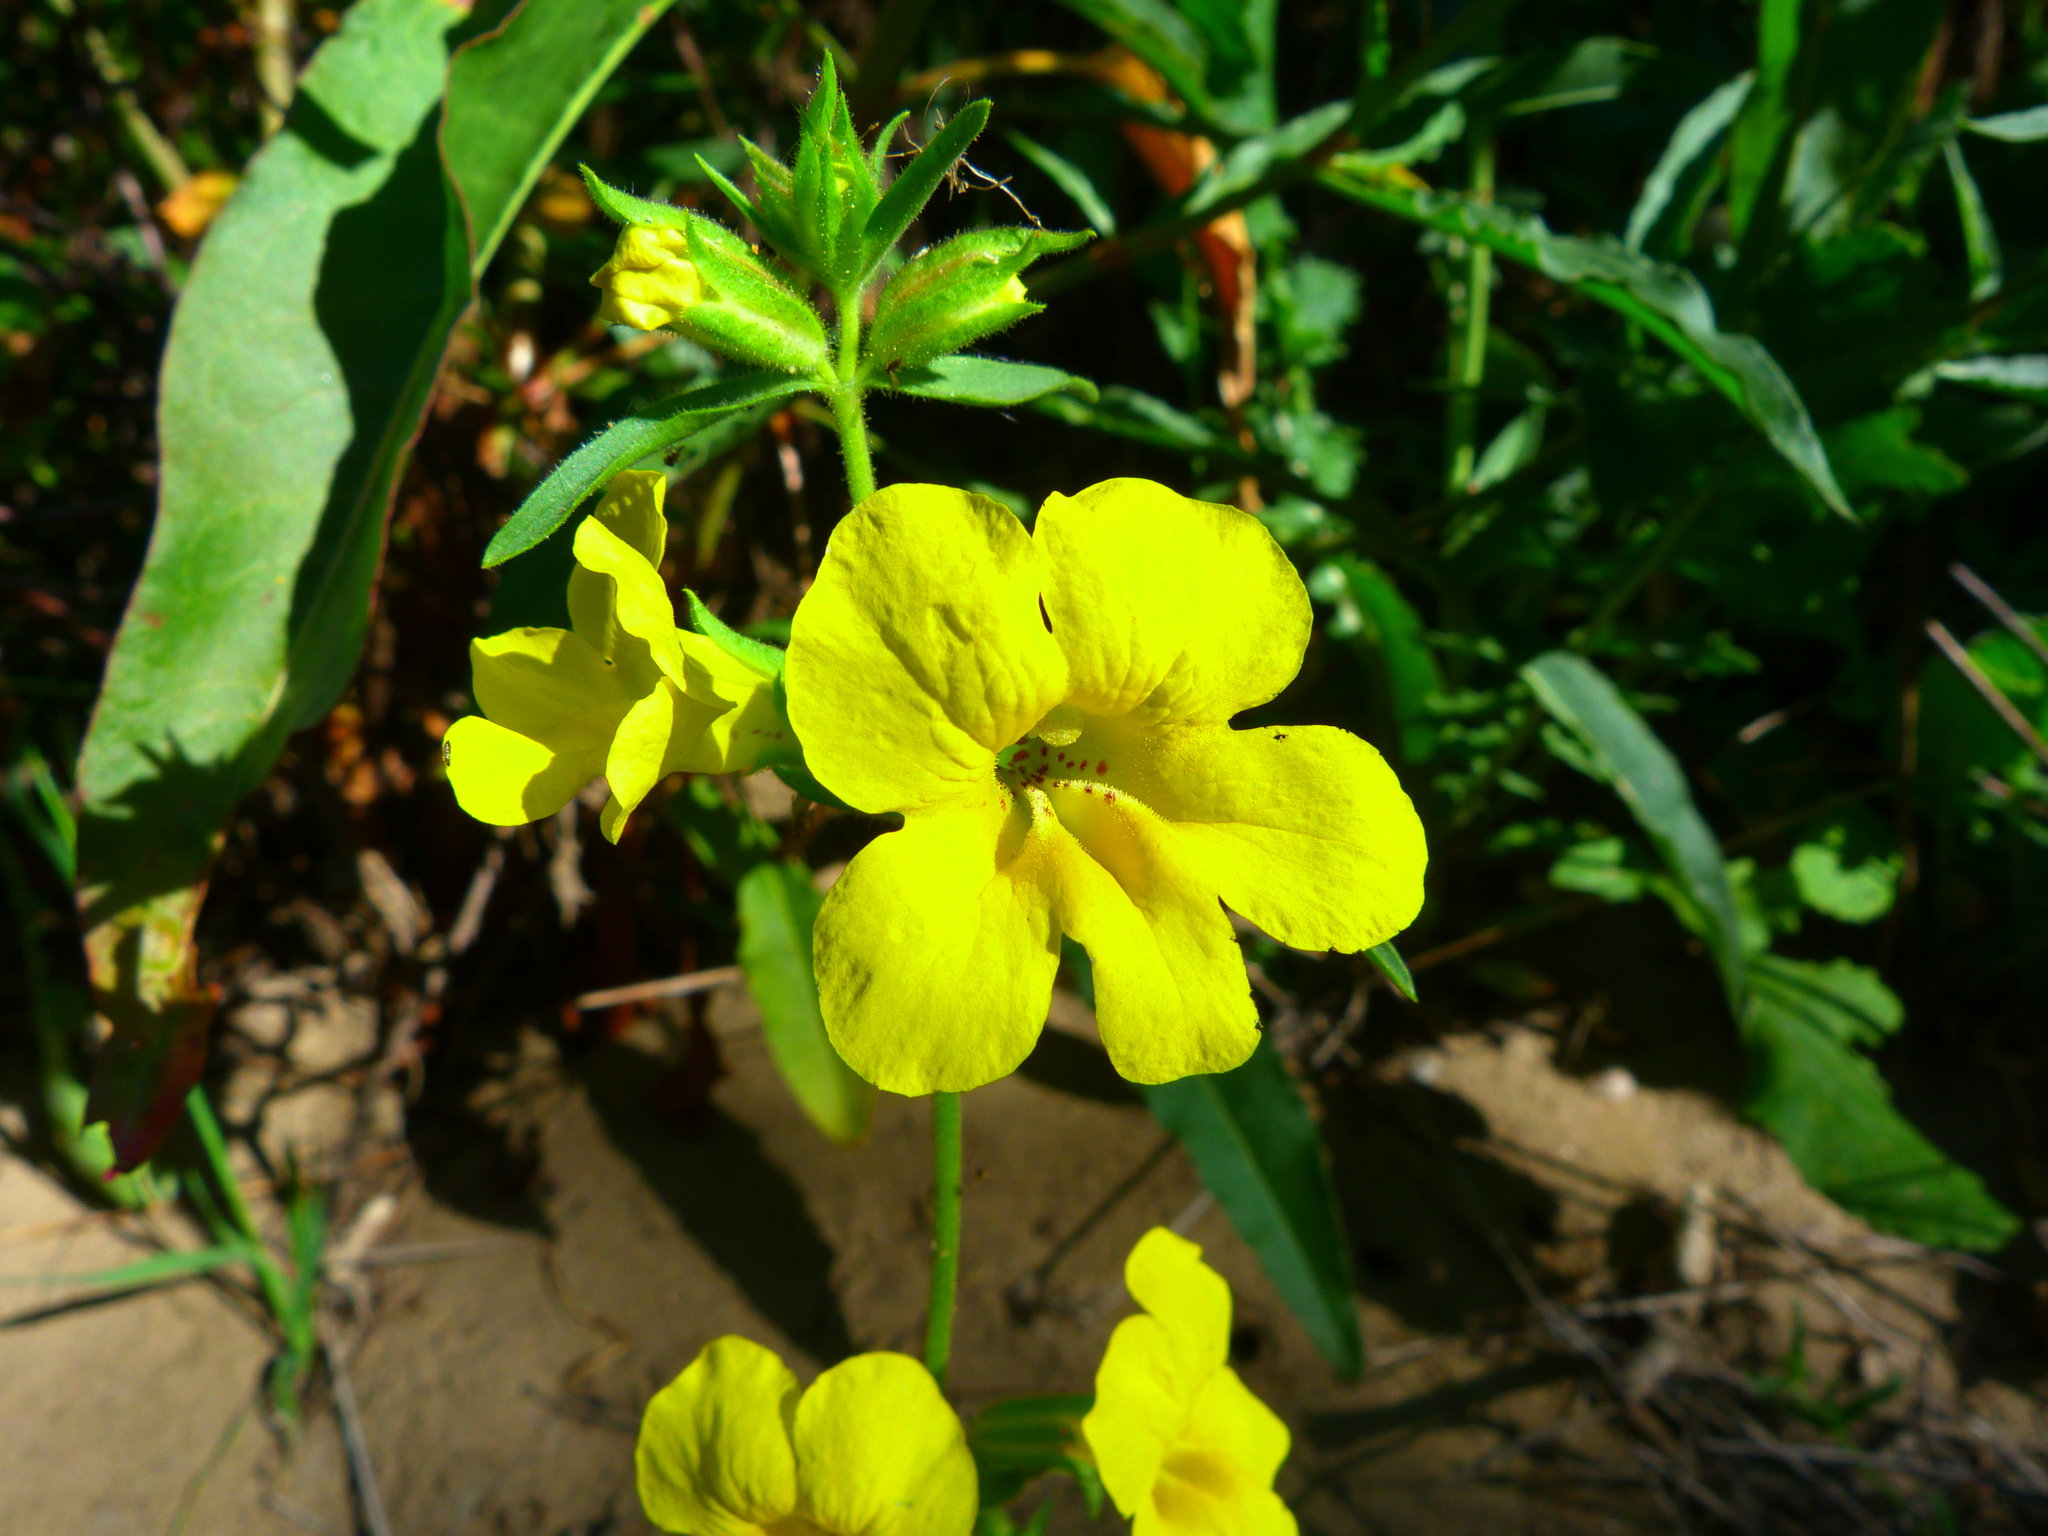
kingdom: Plantae
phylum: Tracheophyta
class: Magnoliopsida
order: Lamiales
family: Phrymaceae
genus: Diplacus
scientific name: Diplacus brevipes
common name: Wide-throat yellow monkey-flower
